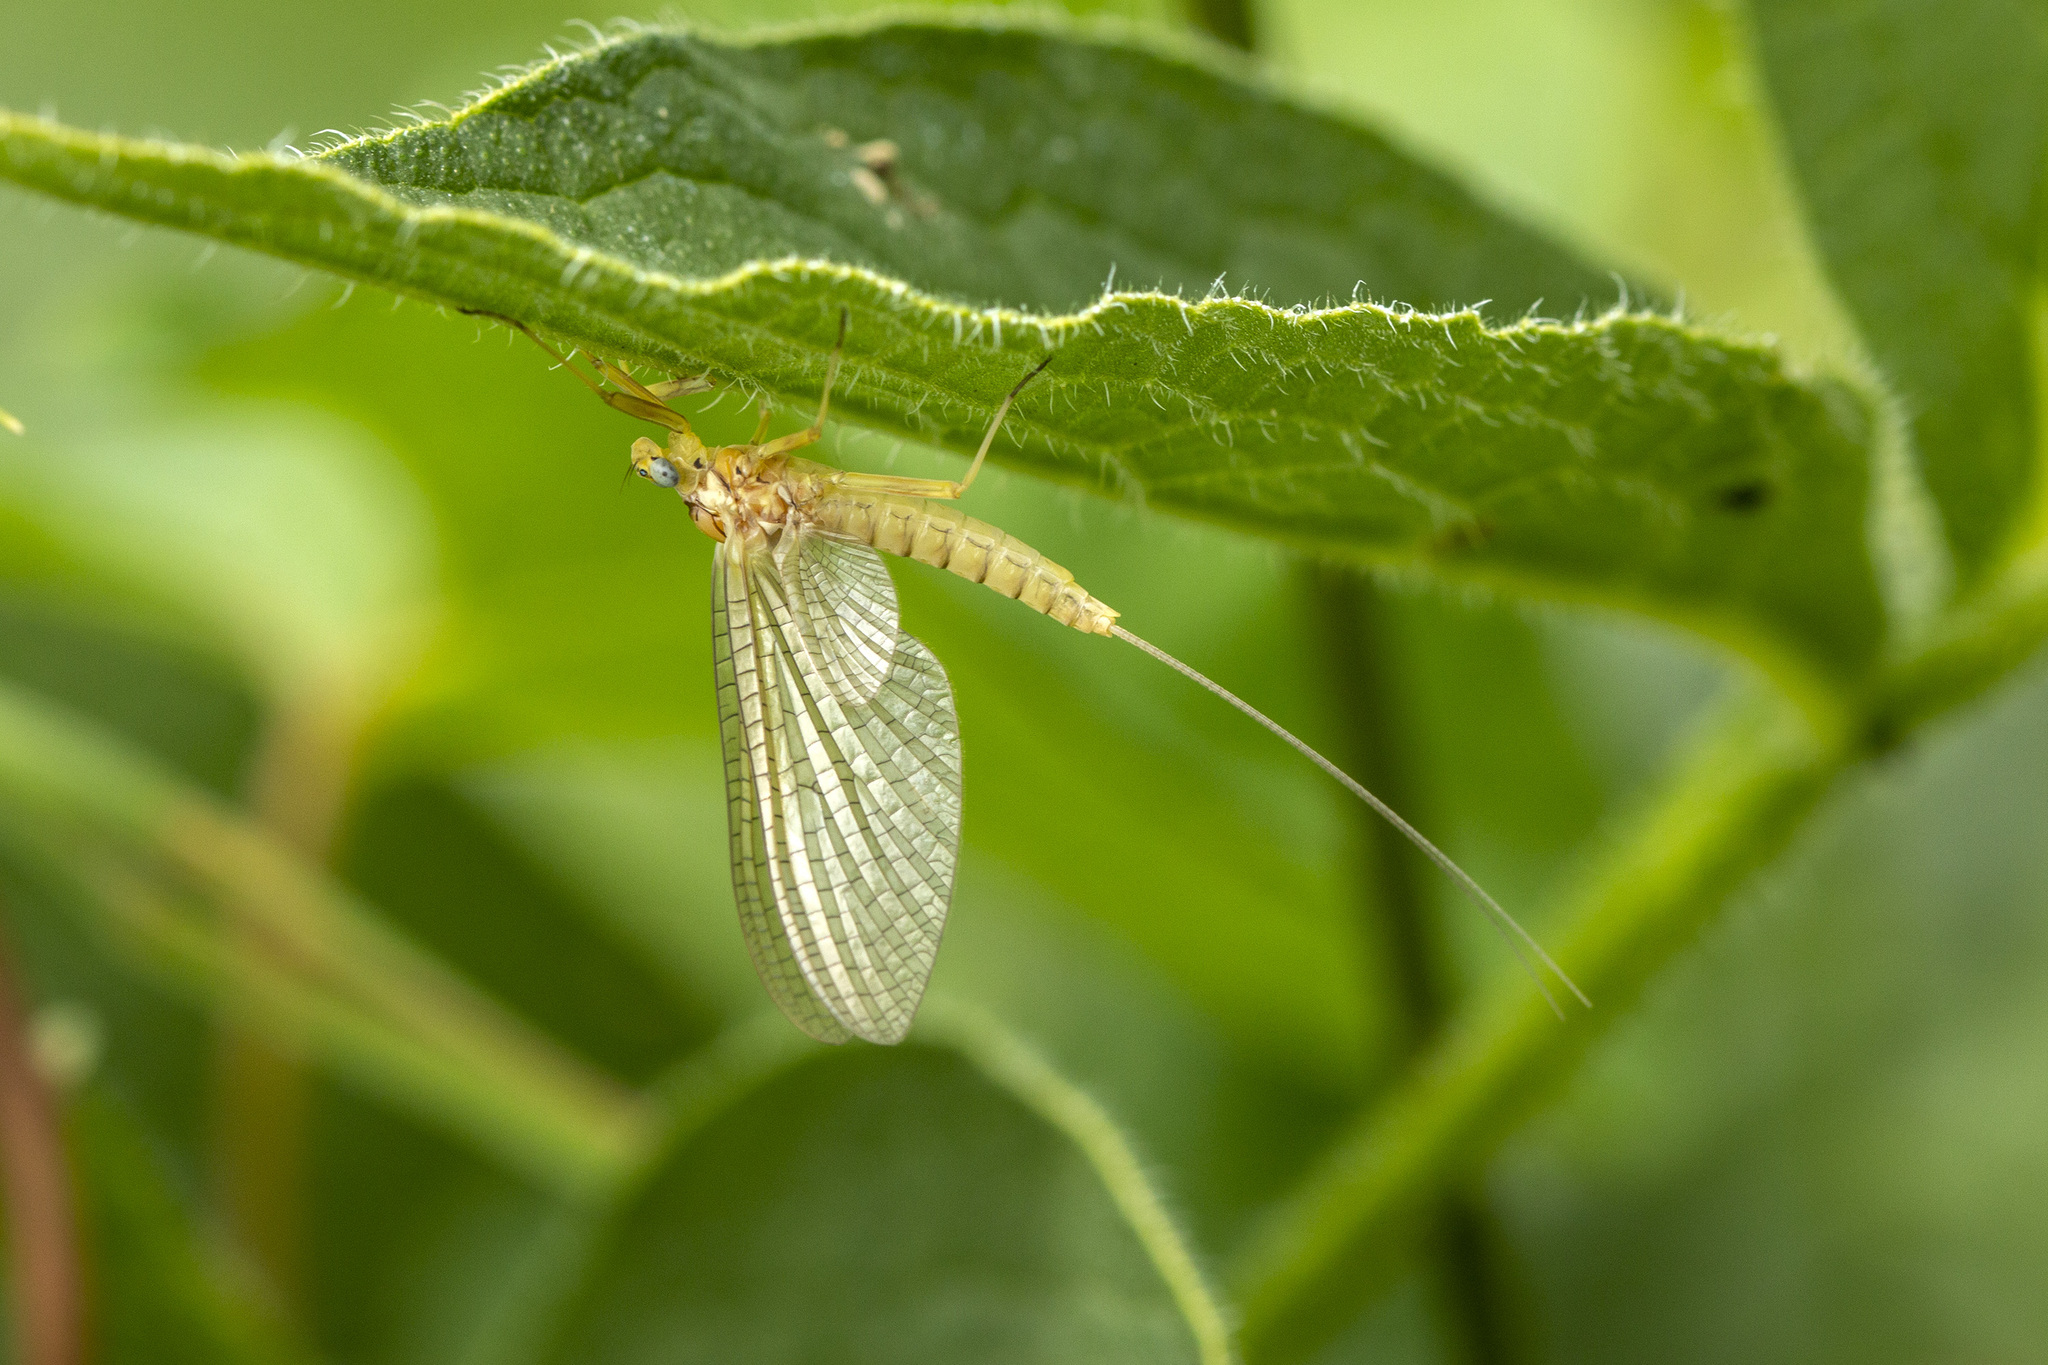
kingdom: Animalia
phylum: Arthropoda
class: Insecta
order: Ephemeroptera
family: Heptageniidae
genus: Heptagenia
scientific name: Heptagenia sulphurea
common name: Yellow may dun
